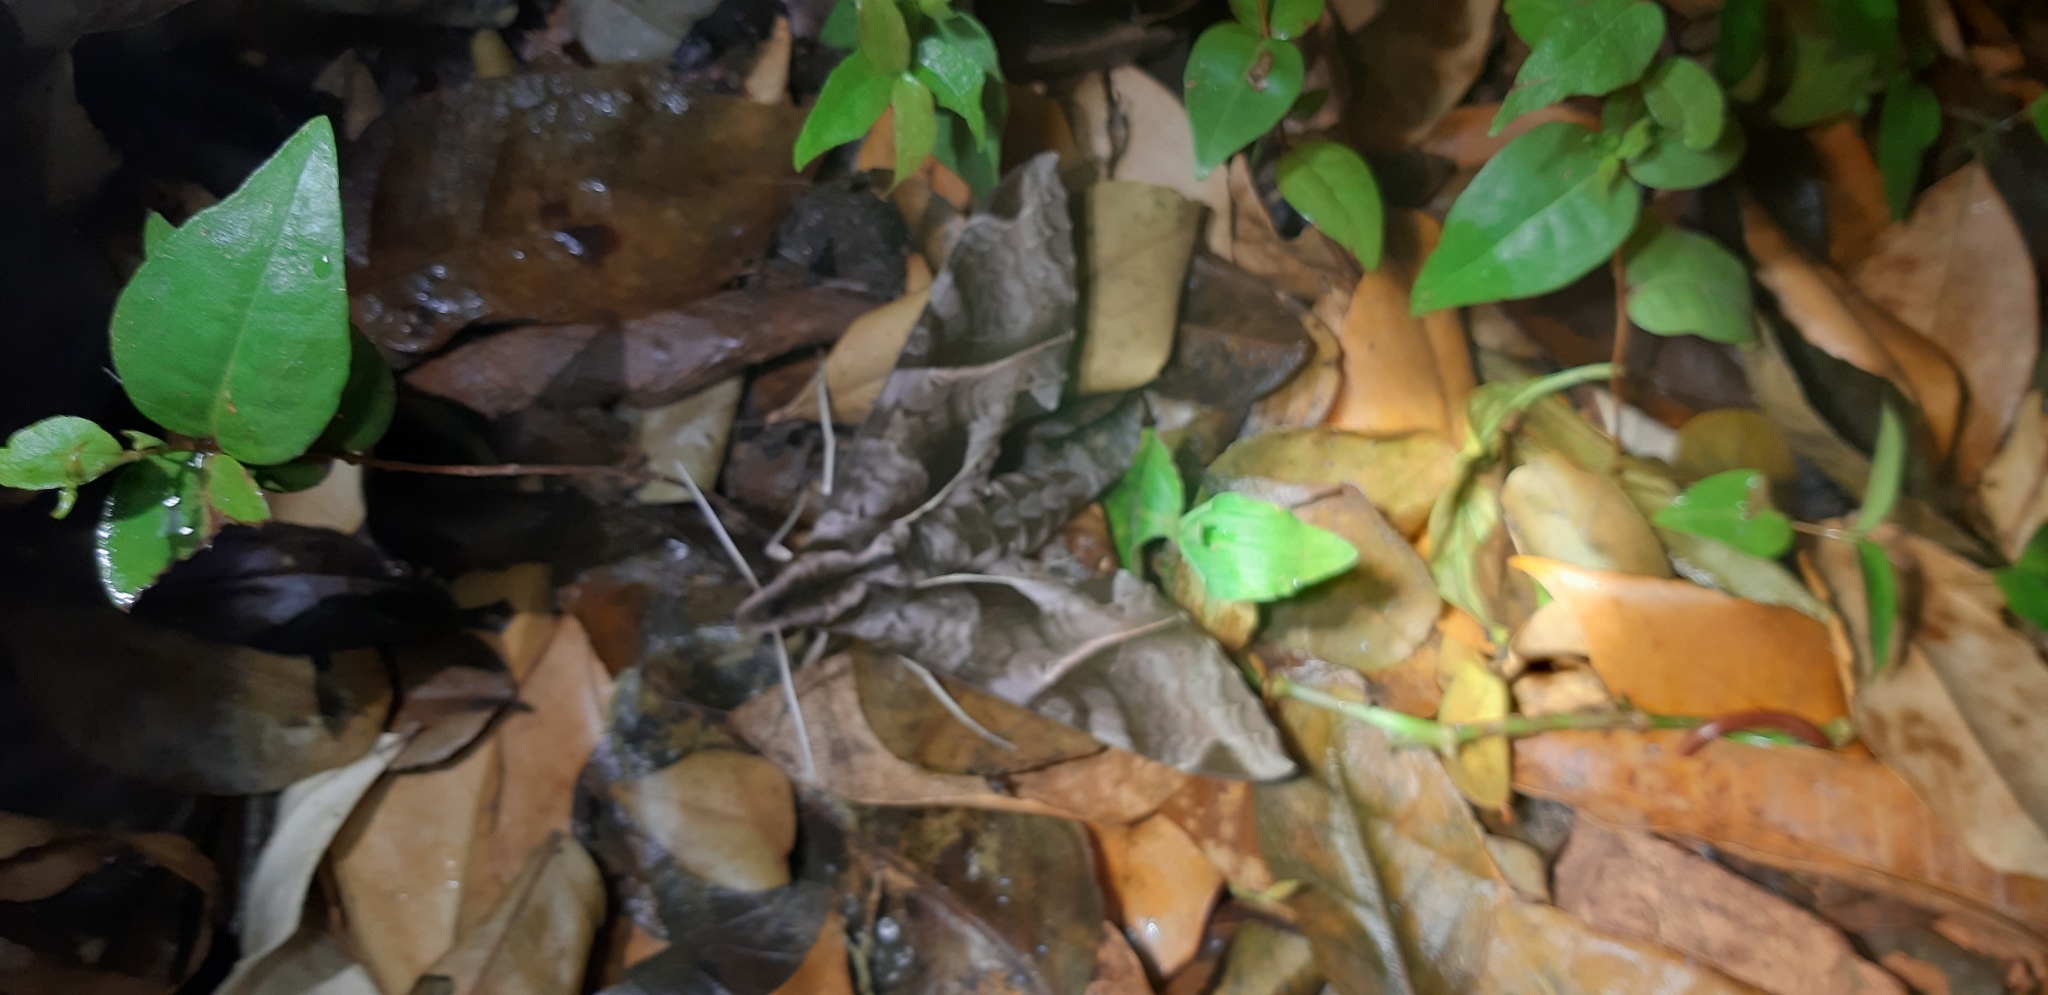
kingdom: Animalia
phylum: Arthropoda
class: Insecta
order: Lepidoptera
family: Sphingidae
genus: Eumorpha
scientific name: Eumorpha anchemolus
